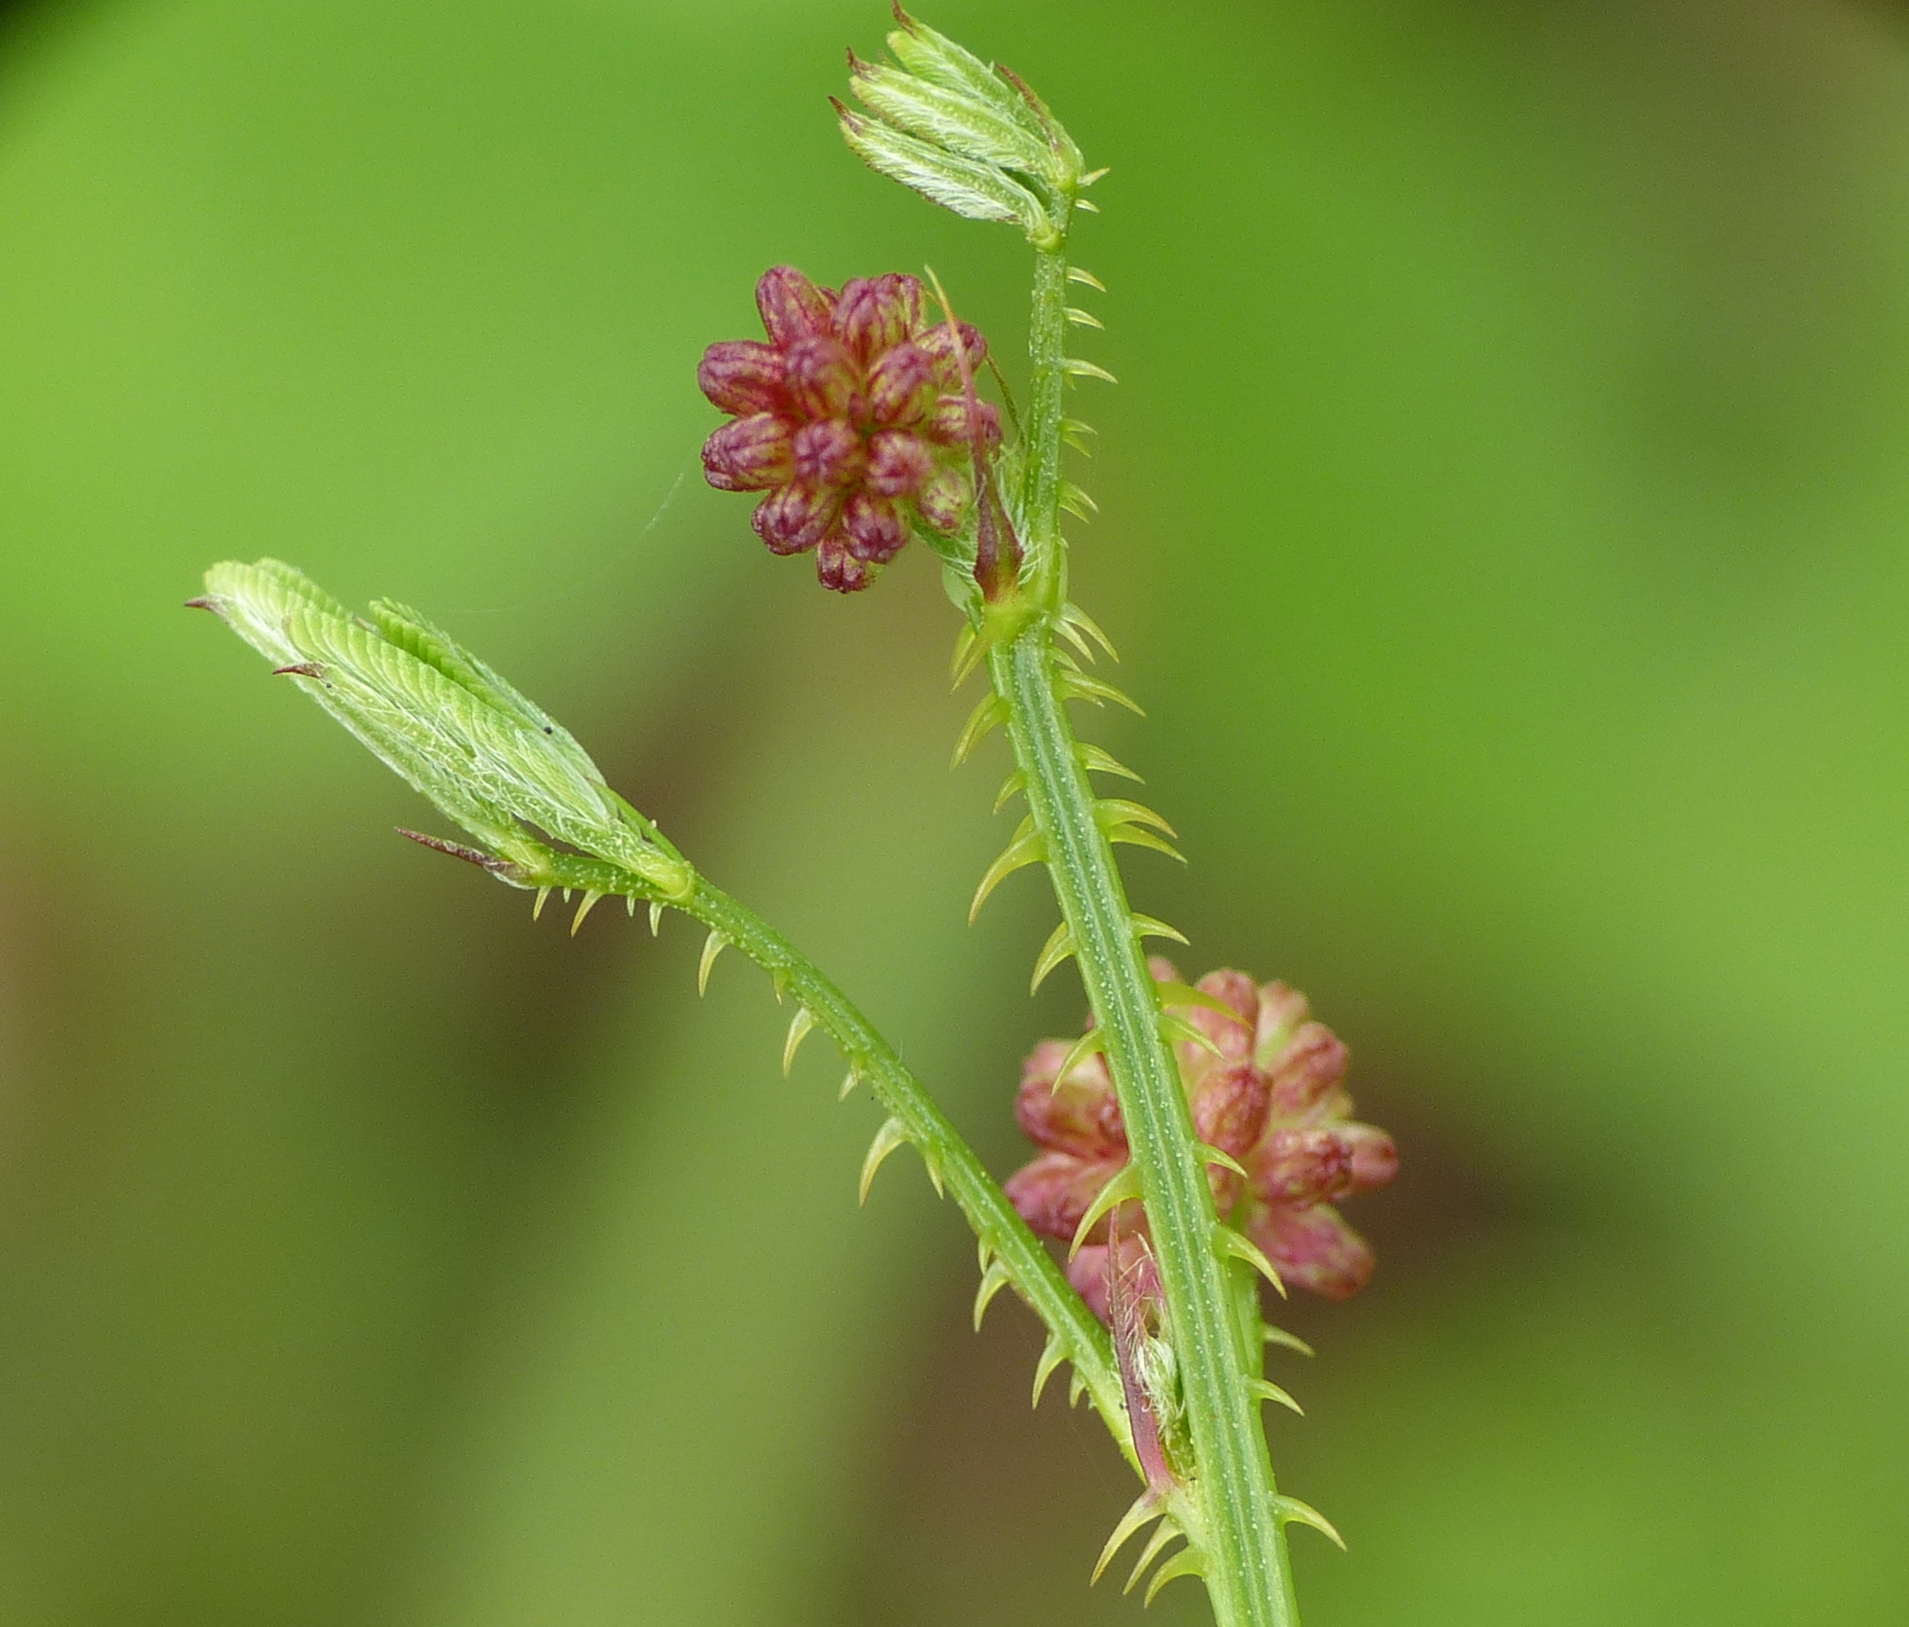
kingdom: Plantae
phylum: Tracheophyta
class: Magnoliopsida
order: Fabales
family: Fabaceae
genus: Mimosa
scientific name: Mimosa candollei
